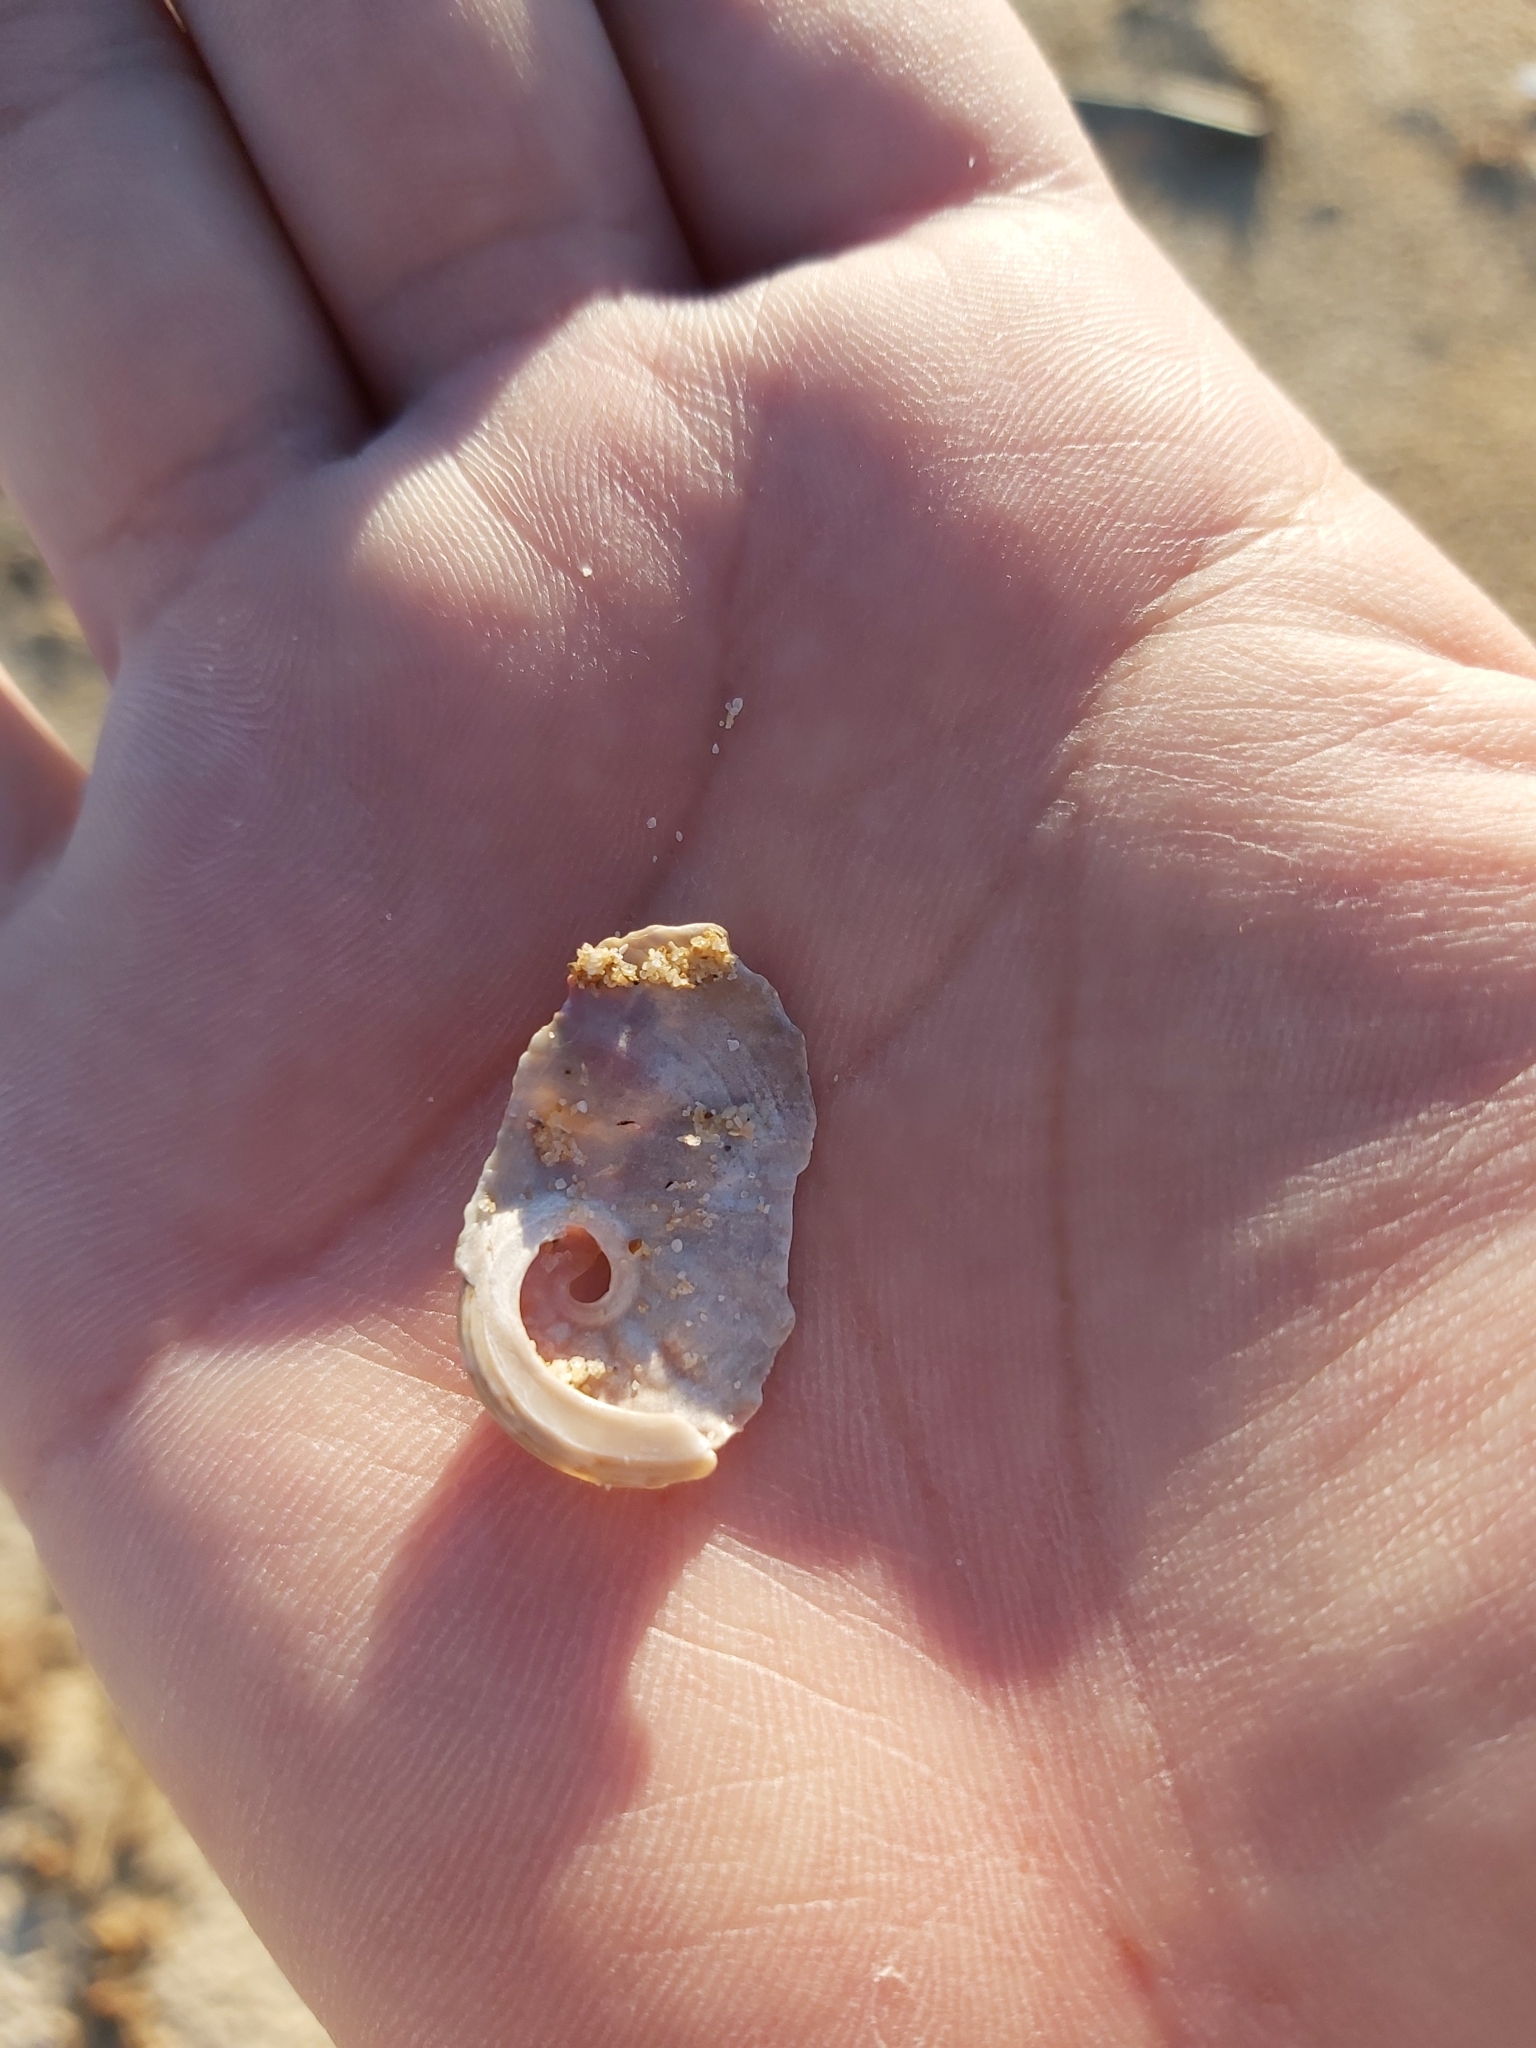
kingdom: Animalia
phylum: Mollusca
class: Gastropoda
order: Lepetellida
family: Haliotidae
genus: Haliotis
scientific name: Haliotis coccoradiata
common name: Reddish-rayed abalone
